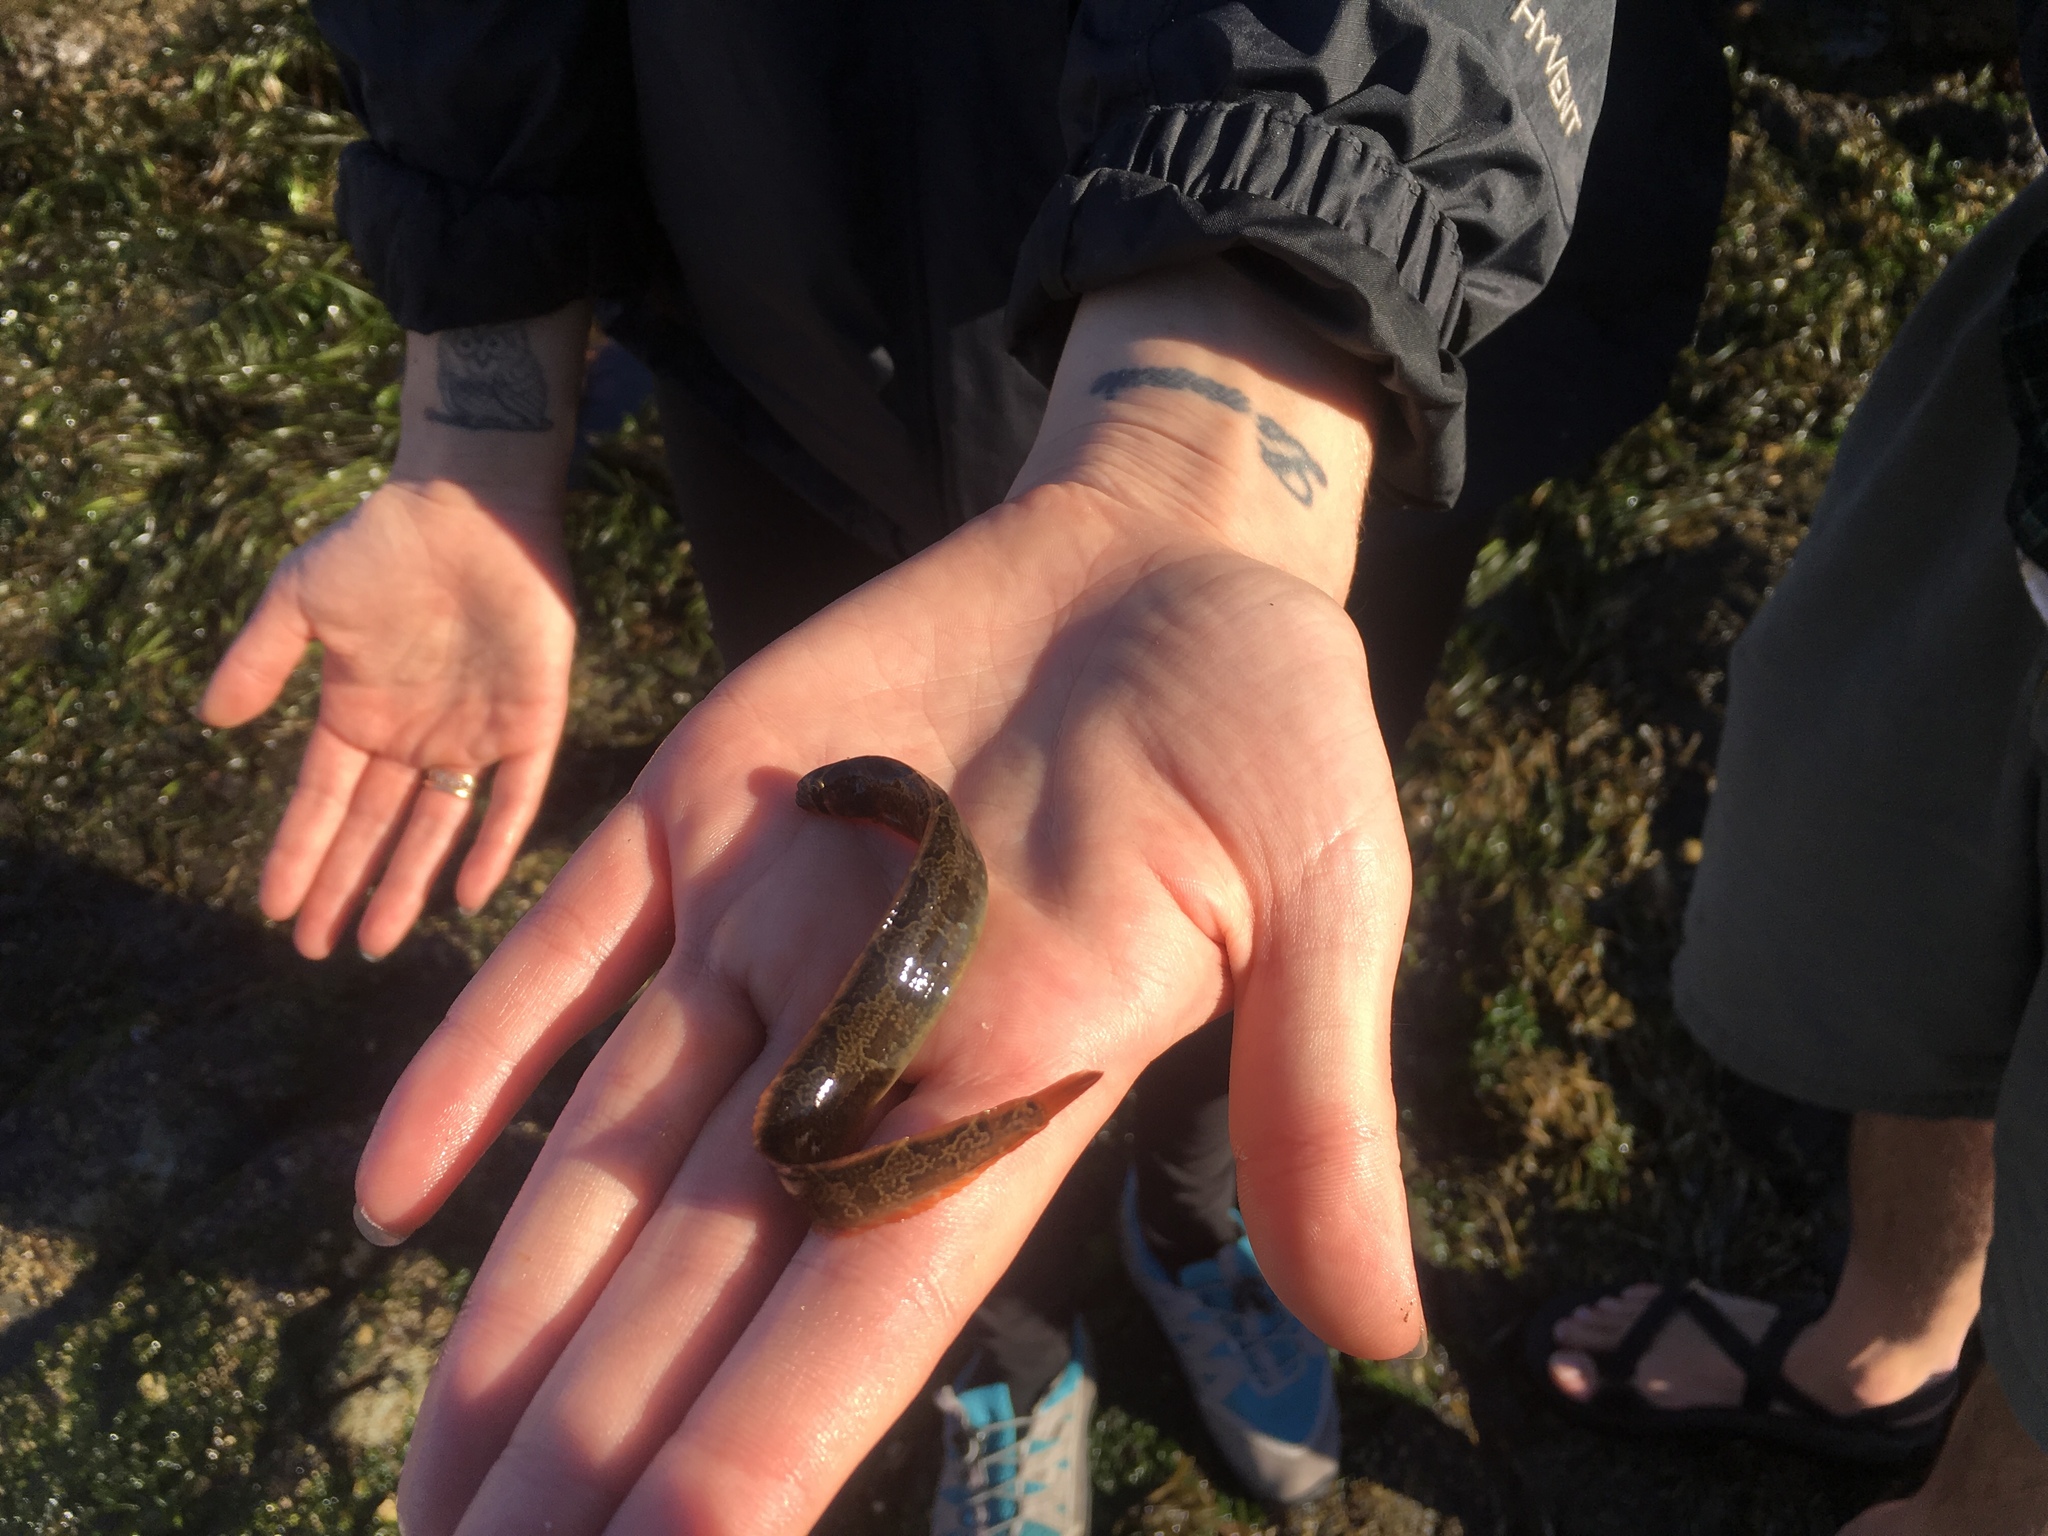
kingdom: Animalia
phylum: Chordata
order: Perciformes
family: Pholidae
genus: Pholis
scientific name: Pholis ornata
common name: Saddleback gunnel
